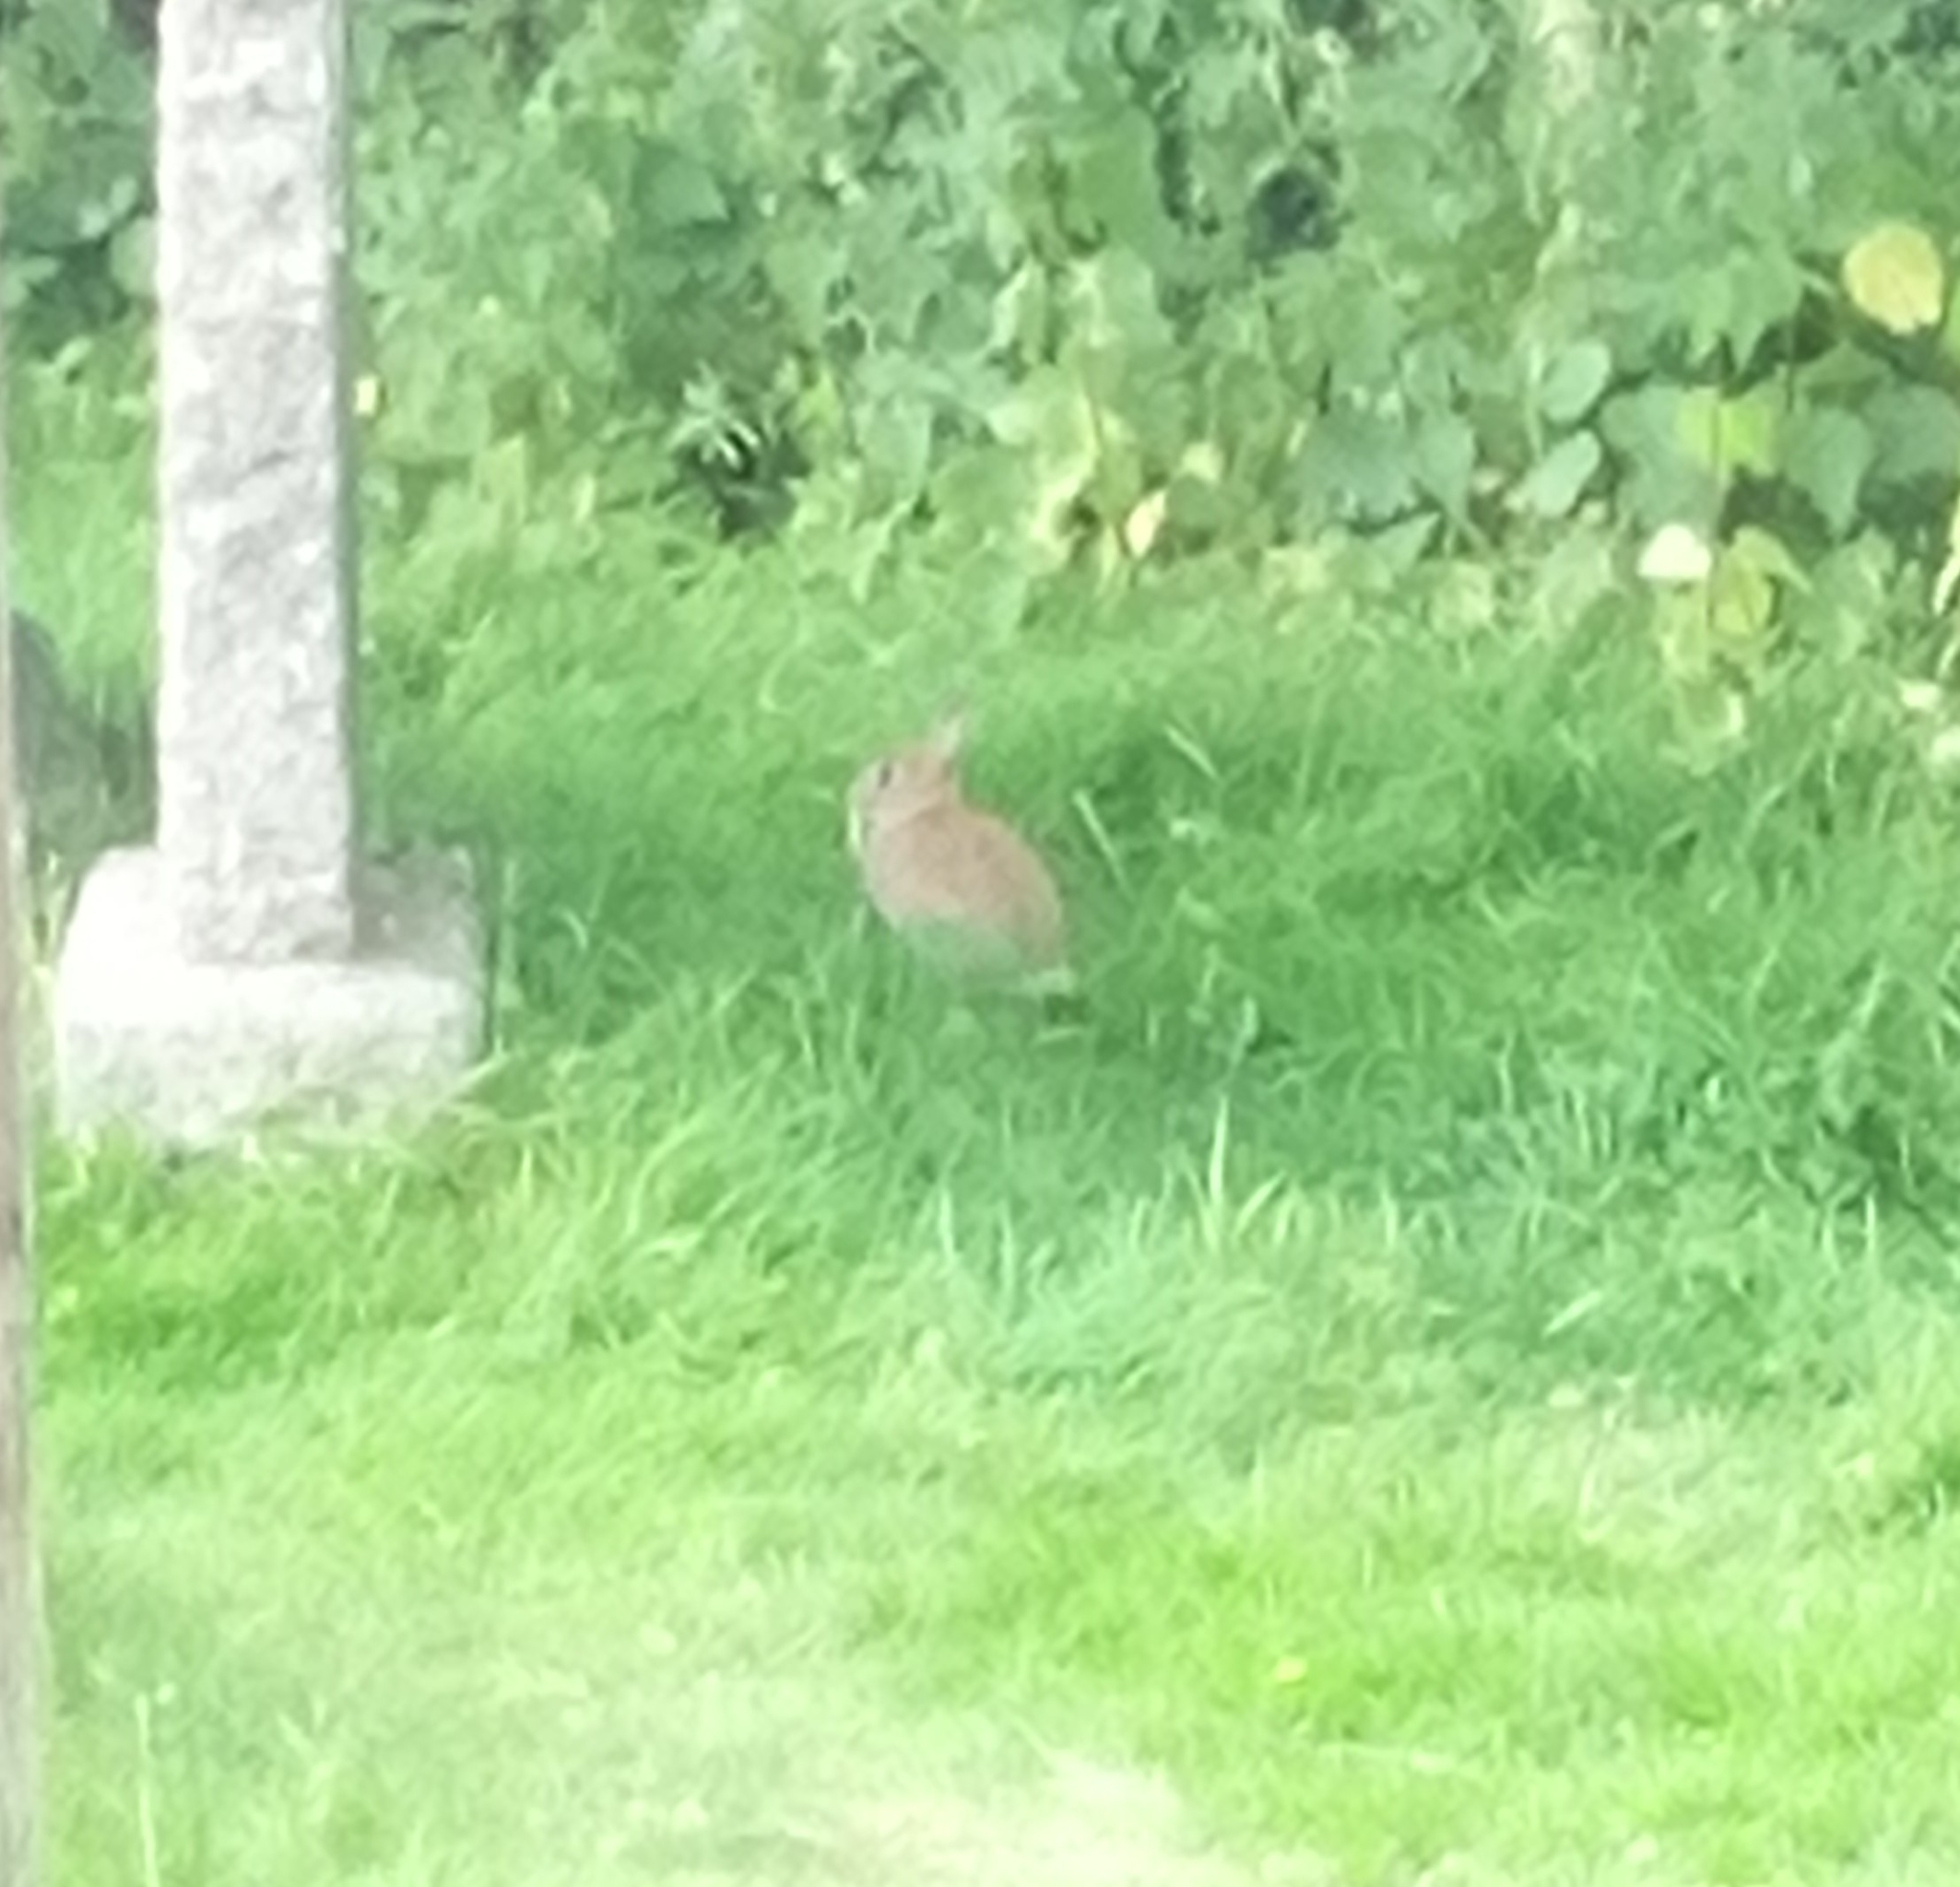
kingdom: Animalia
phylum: Chordata
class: Mammalia
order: Lagomorpha
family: Leporidae
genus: Oryctolagus
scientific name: Oryctolagus cuniculus
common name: European rabbit
